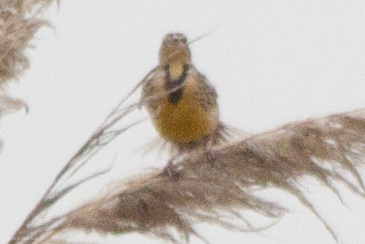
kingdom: Animalia
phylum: Chordata
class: Aves
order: Passeriformes
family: Icteridae
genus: Sturnella
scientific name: Sturnella neglecta
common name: Western meadowlark
